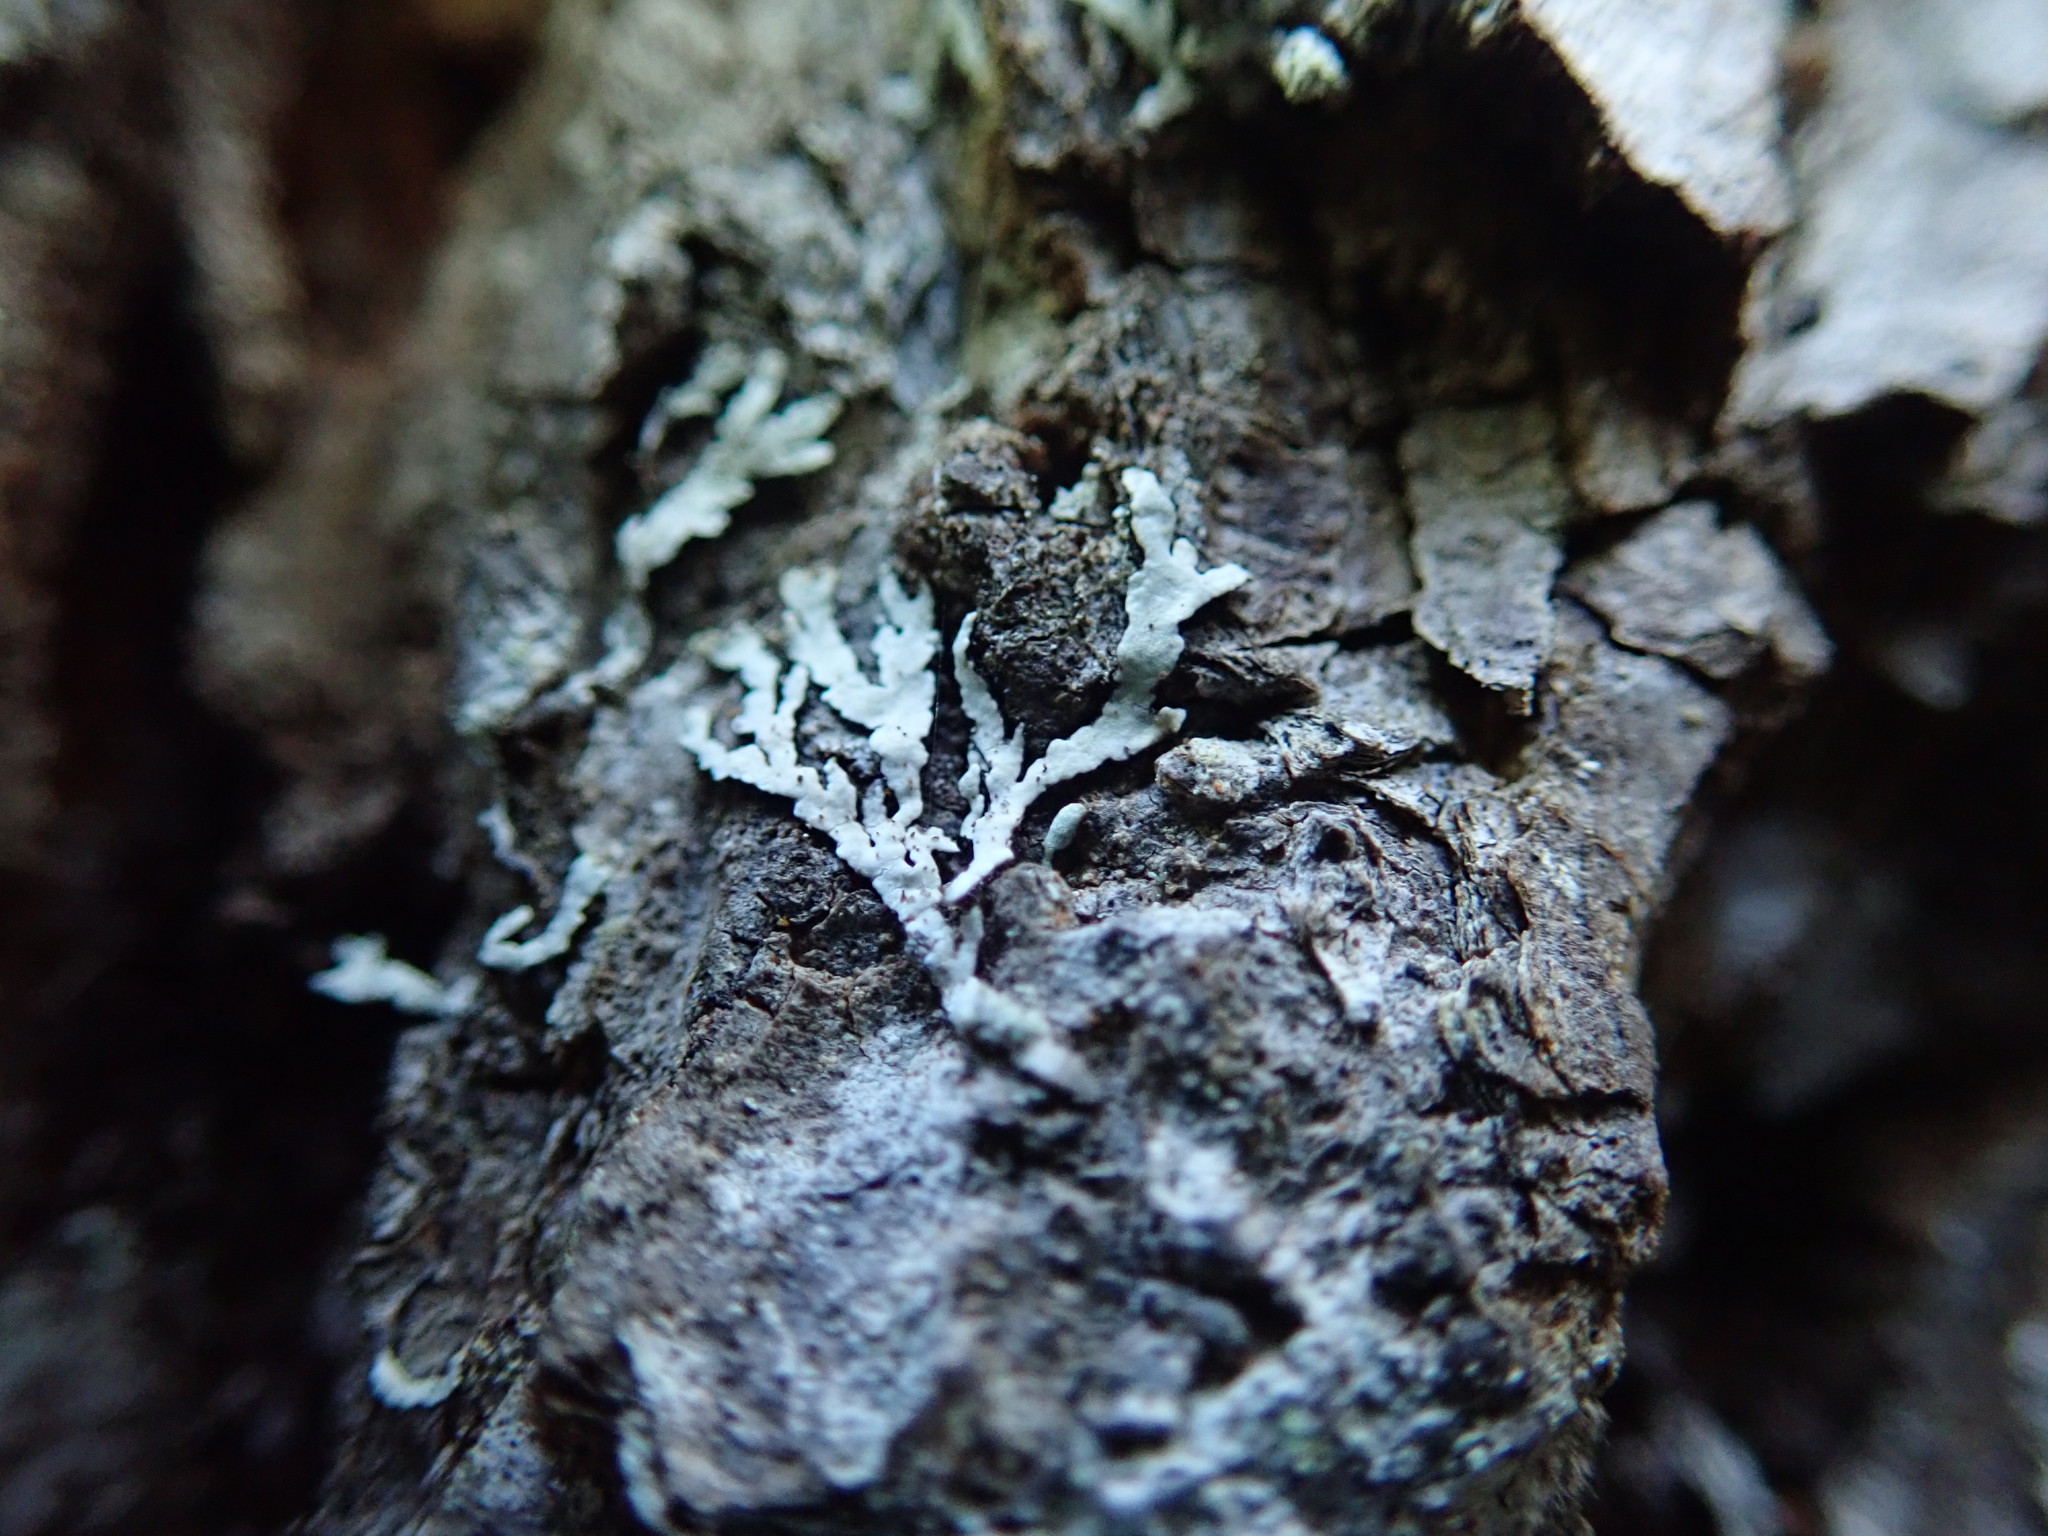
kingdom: Fungi
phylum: Ascomycota
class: Lecanoromycetes
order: Lecanorales
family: Parmeliaceae
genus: Parmeliopsis
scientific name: Parmeliopsis hyperopta
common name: Grey starburst lichen
